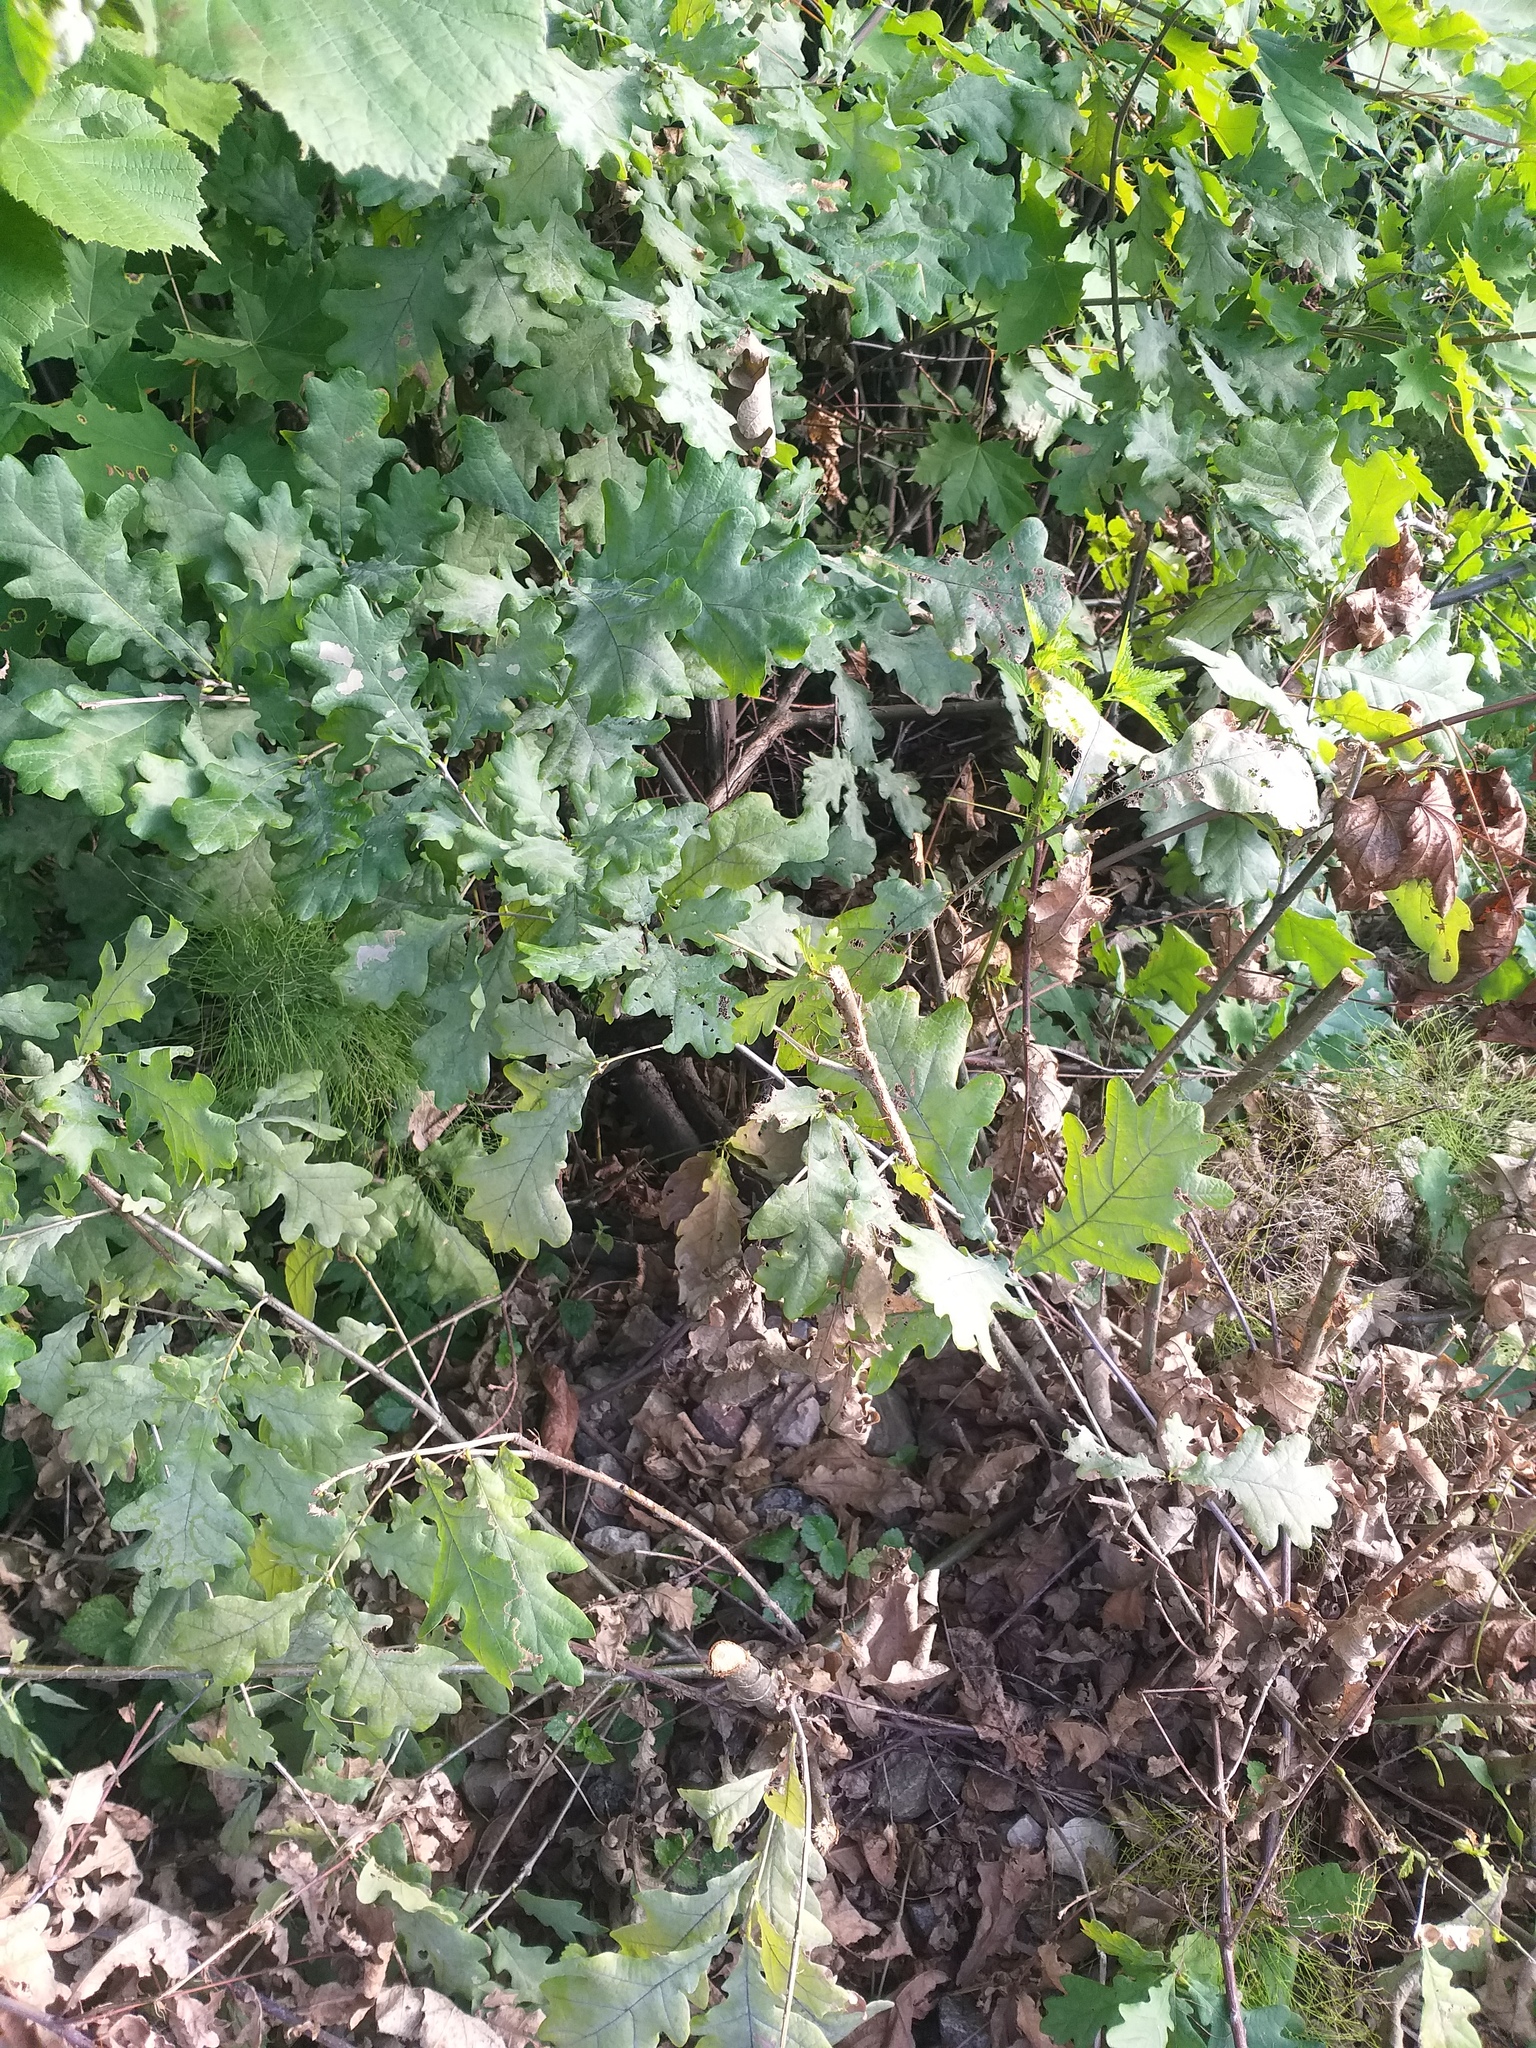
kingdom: Plantae
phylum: Tracheophyta
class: Magnoliopsida
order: Fagales
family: Fagaceae
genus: Quercus
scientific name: Quercus robur
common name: Pedunculate oak
